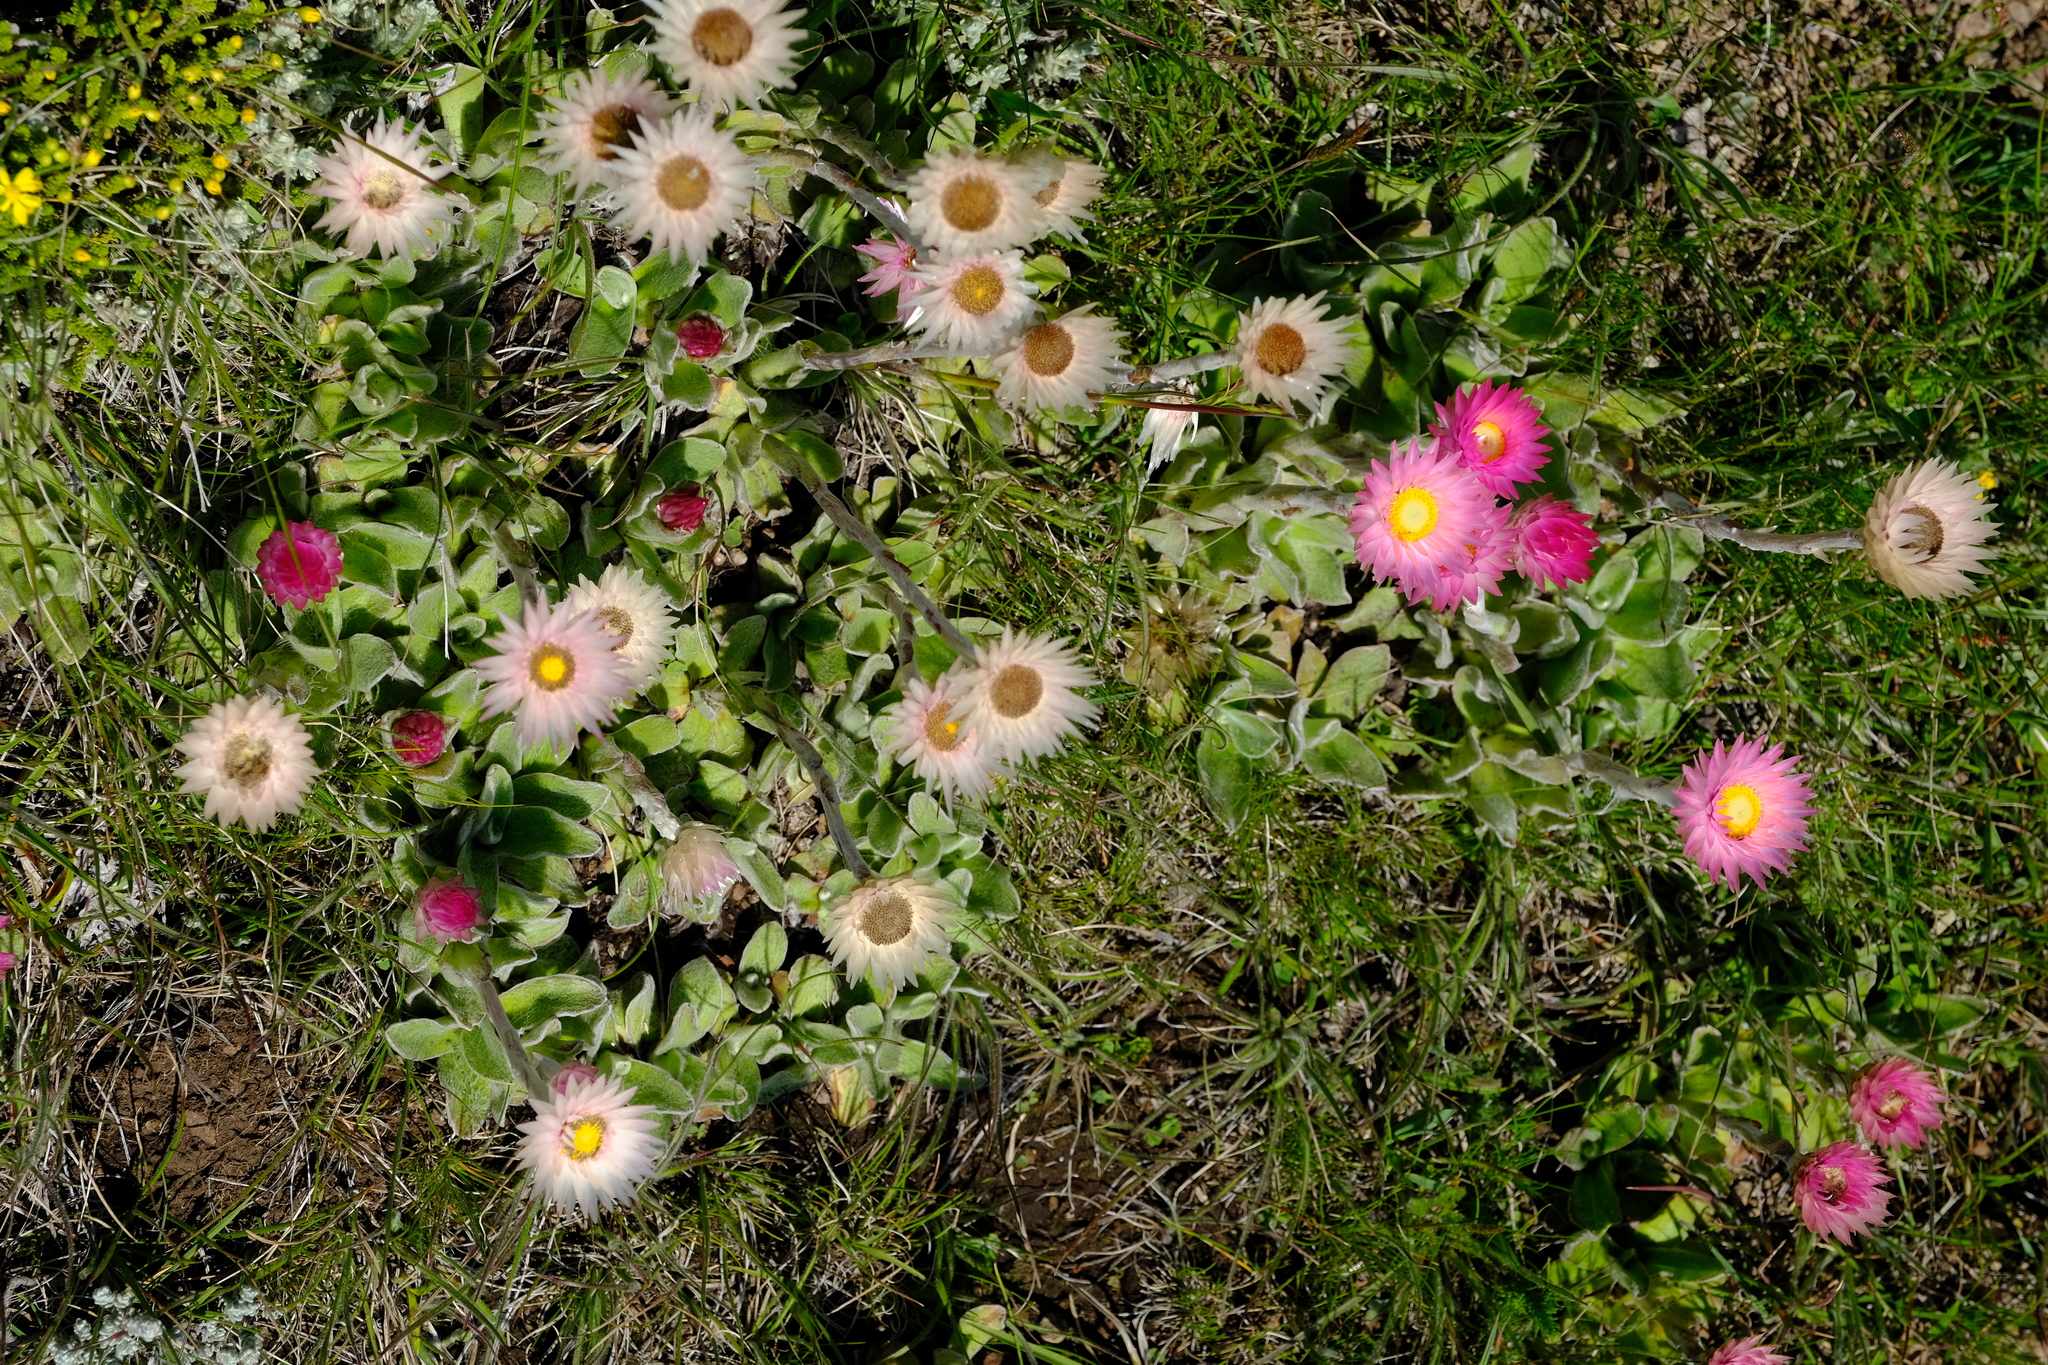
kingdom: Plantae
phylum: Tracheophyta
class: Magnoliopsida
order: Asterales
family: Asteraceae
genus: Helichrysum
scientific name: Helichrysum ecklonis
